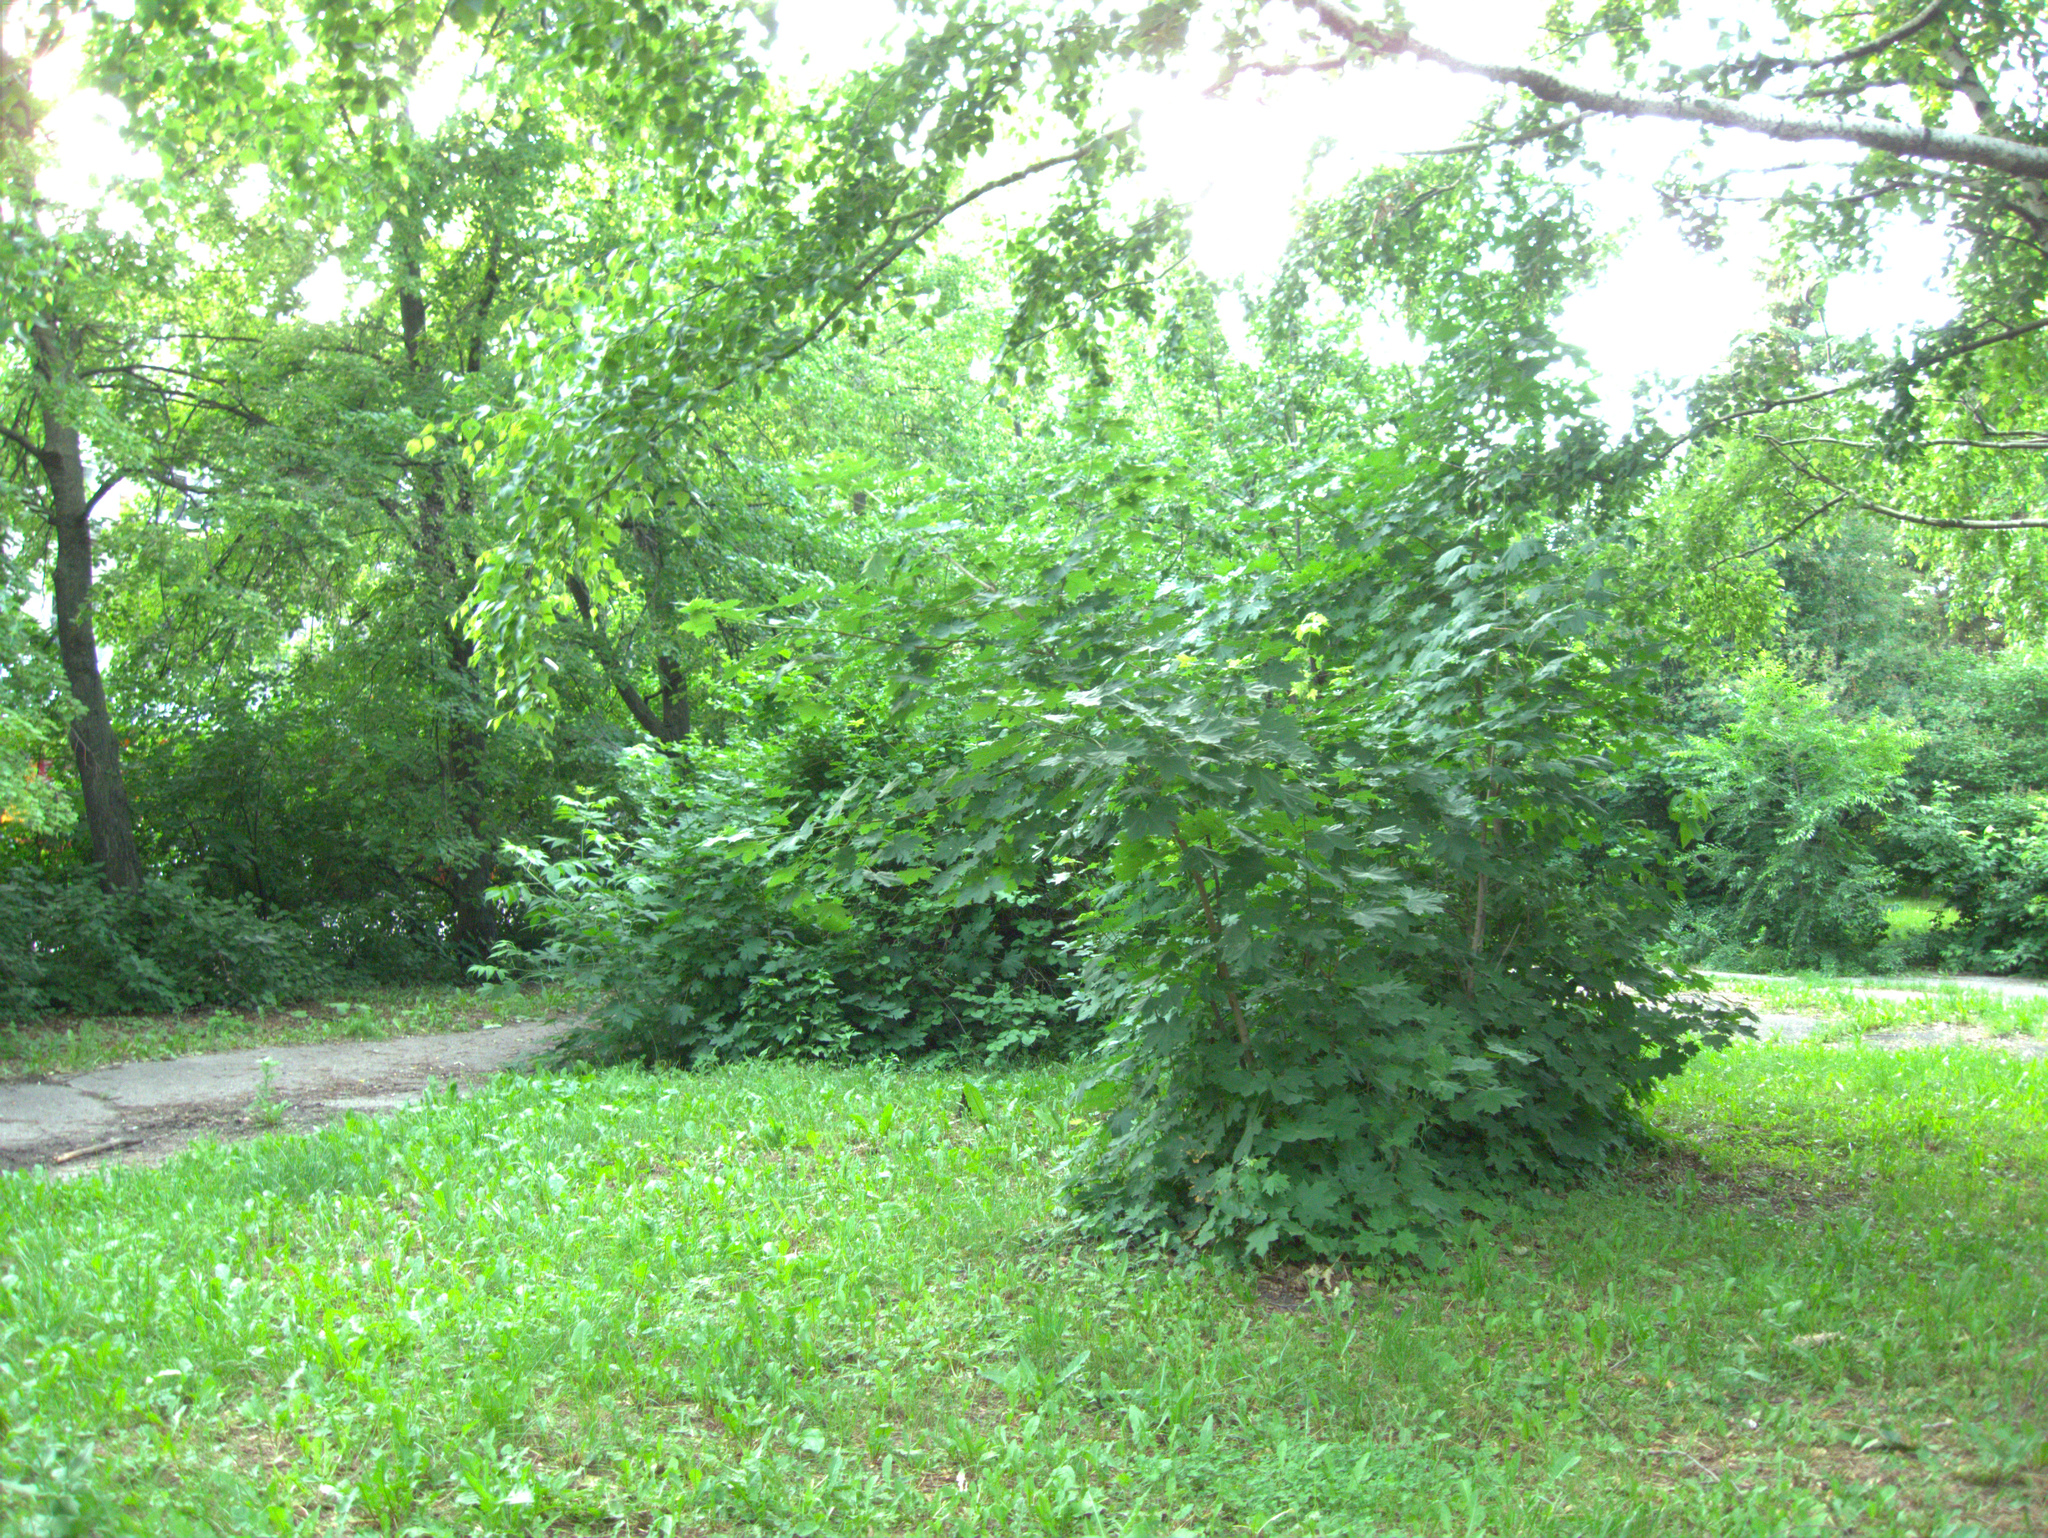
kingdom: Plantae
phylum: Tracheophyta
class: Magnoliopsida
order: Sapindales
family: Sapindaceae
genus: Acer
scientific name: Acer platanoides
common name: Norway maple
